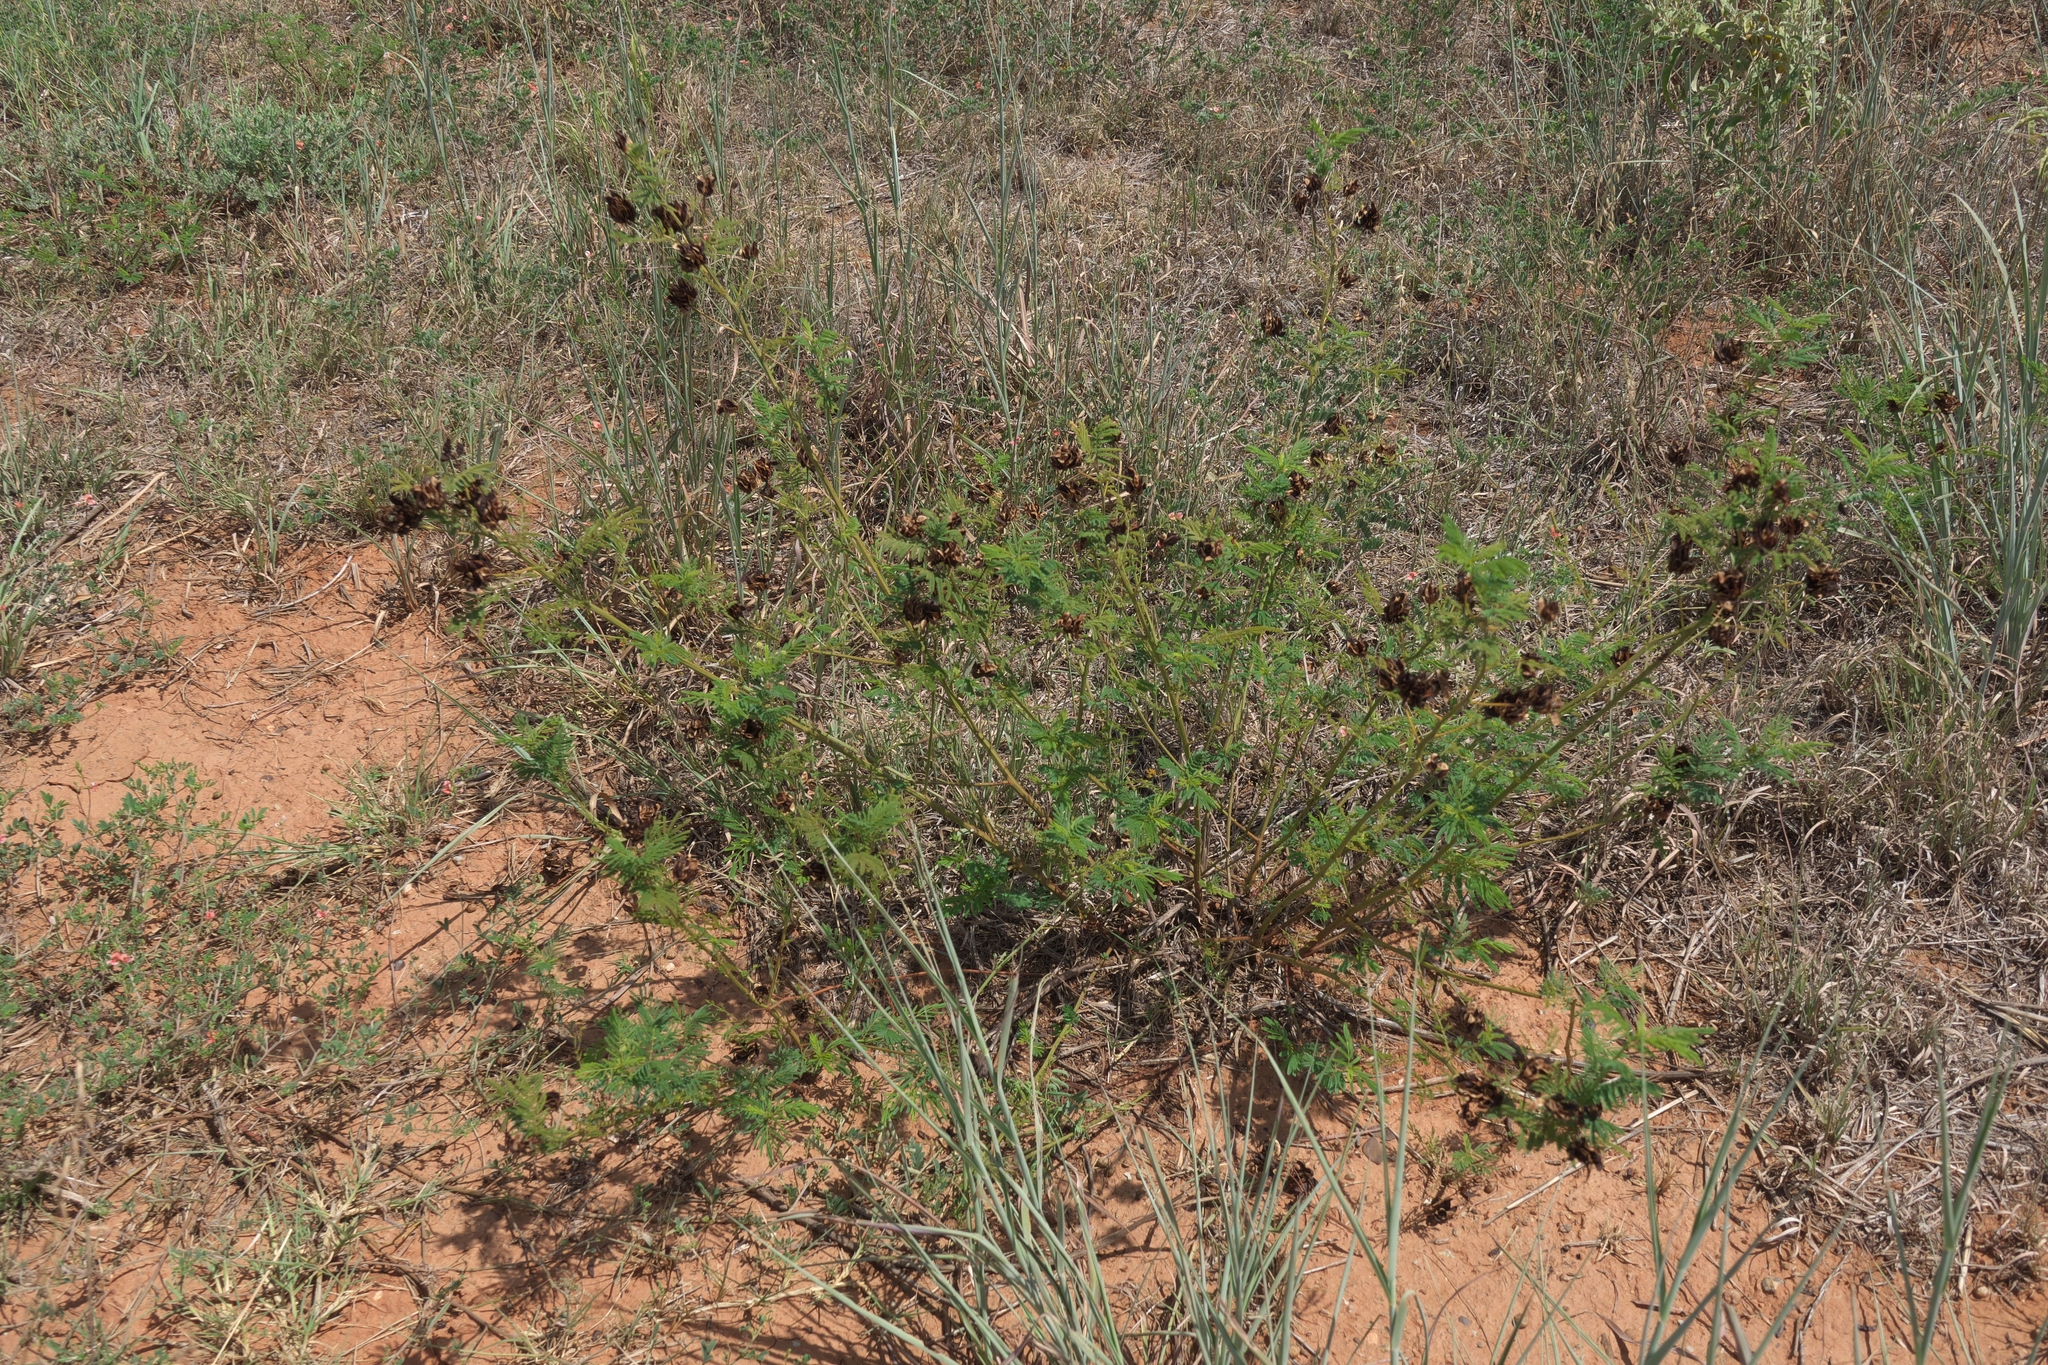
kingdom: Plantae
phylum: Tracheophyta
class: Magnoliopsida
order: Fabales
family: Fabaceae
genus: Desmanthus
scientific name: Desmanthus illinoensis
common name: Illinois bundle-flower
